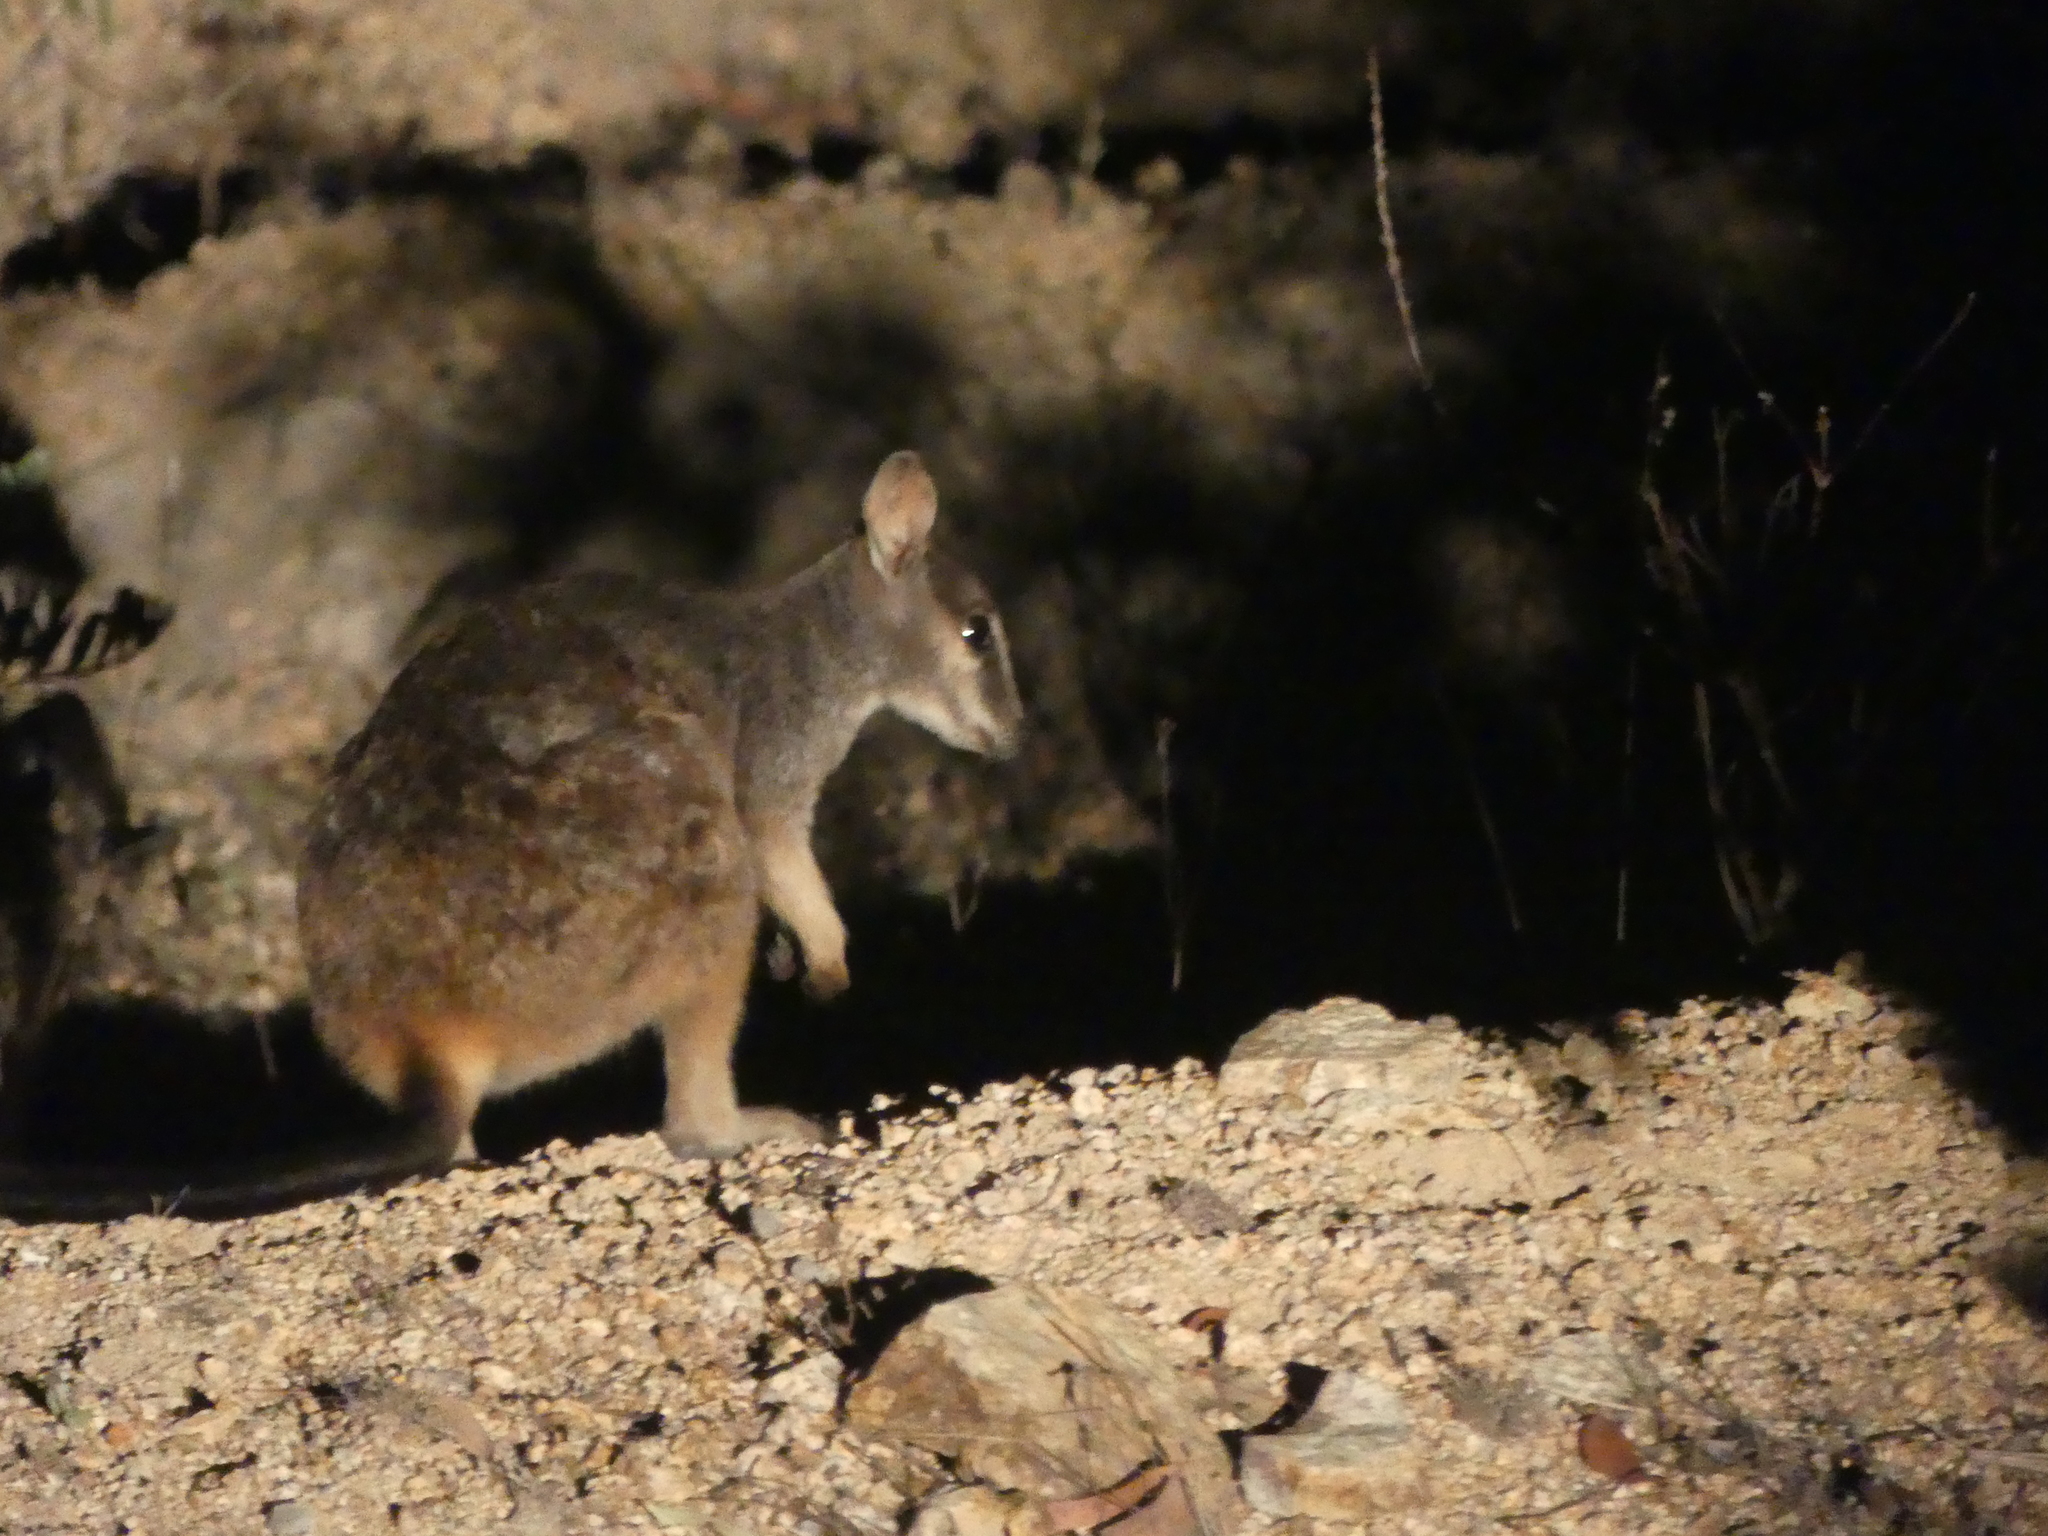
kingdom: Animalia
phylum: Chordata
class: Mammalia
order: Diprotodontia
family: Macropodidae
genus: Petrogale
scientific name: Petrogale sharmani
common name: Mt. claro rock-wallaby
